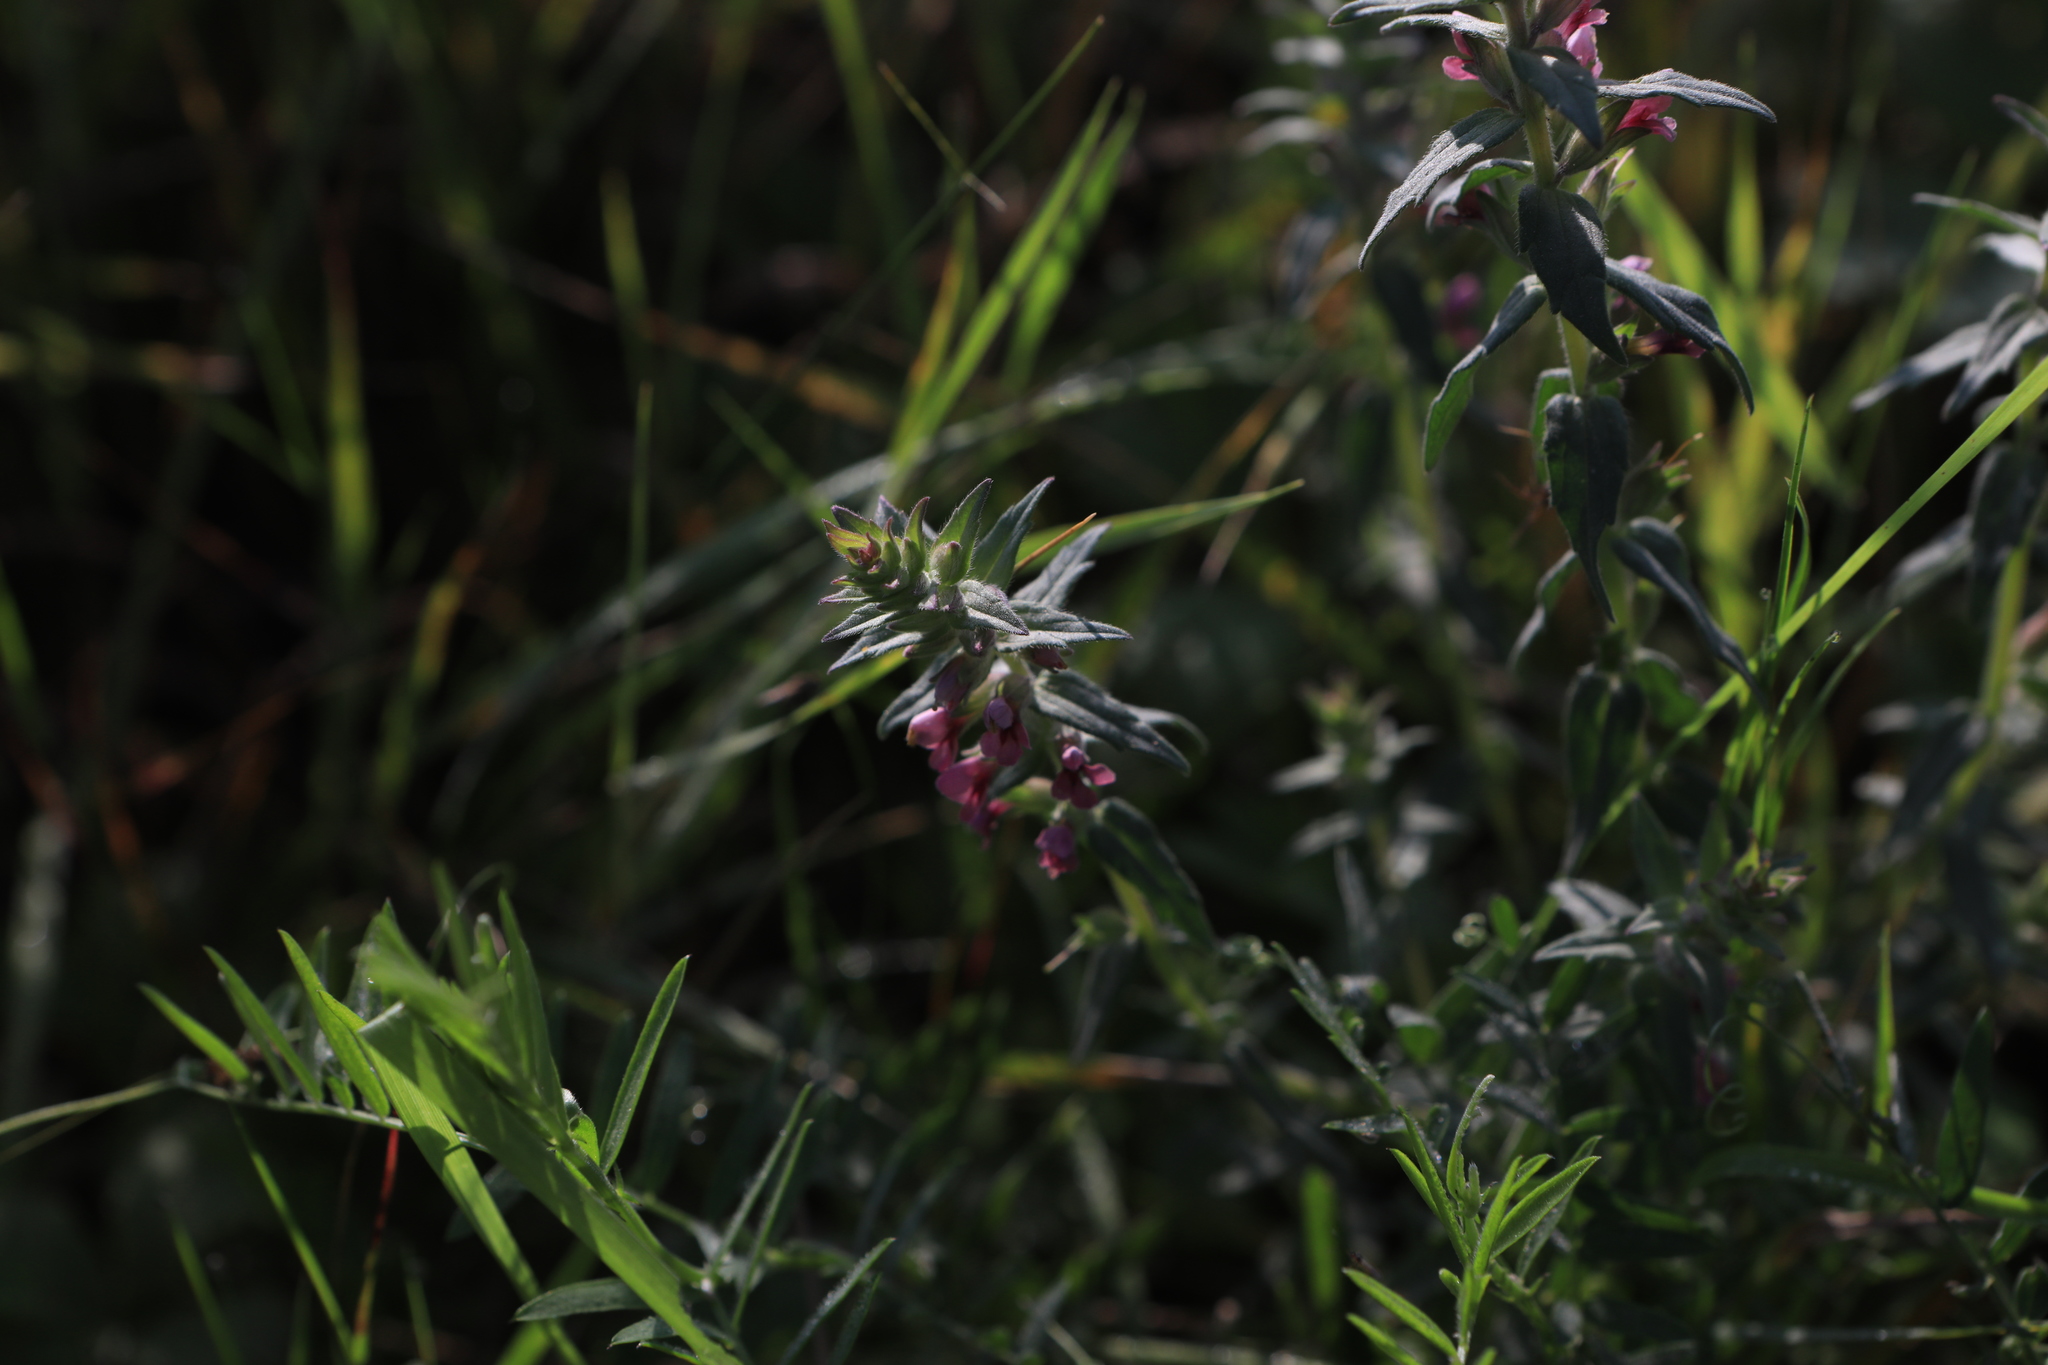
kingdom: Plantae
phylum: Tracheophyta
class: Magnoliopsida
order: Lamiales
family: Orobanchaceae
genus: Odontites
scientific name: Odontites vulgaris
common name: Broomrape
